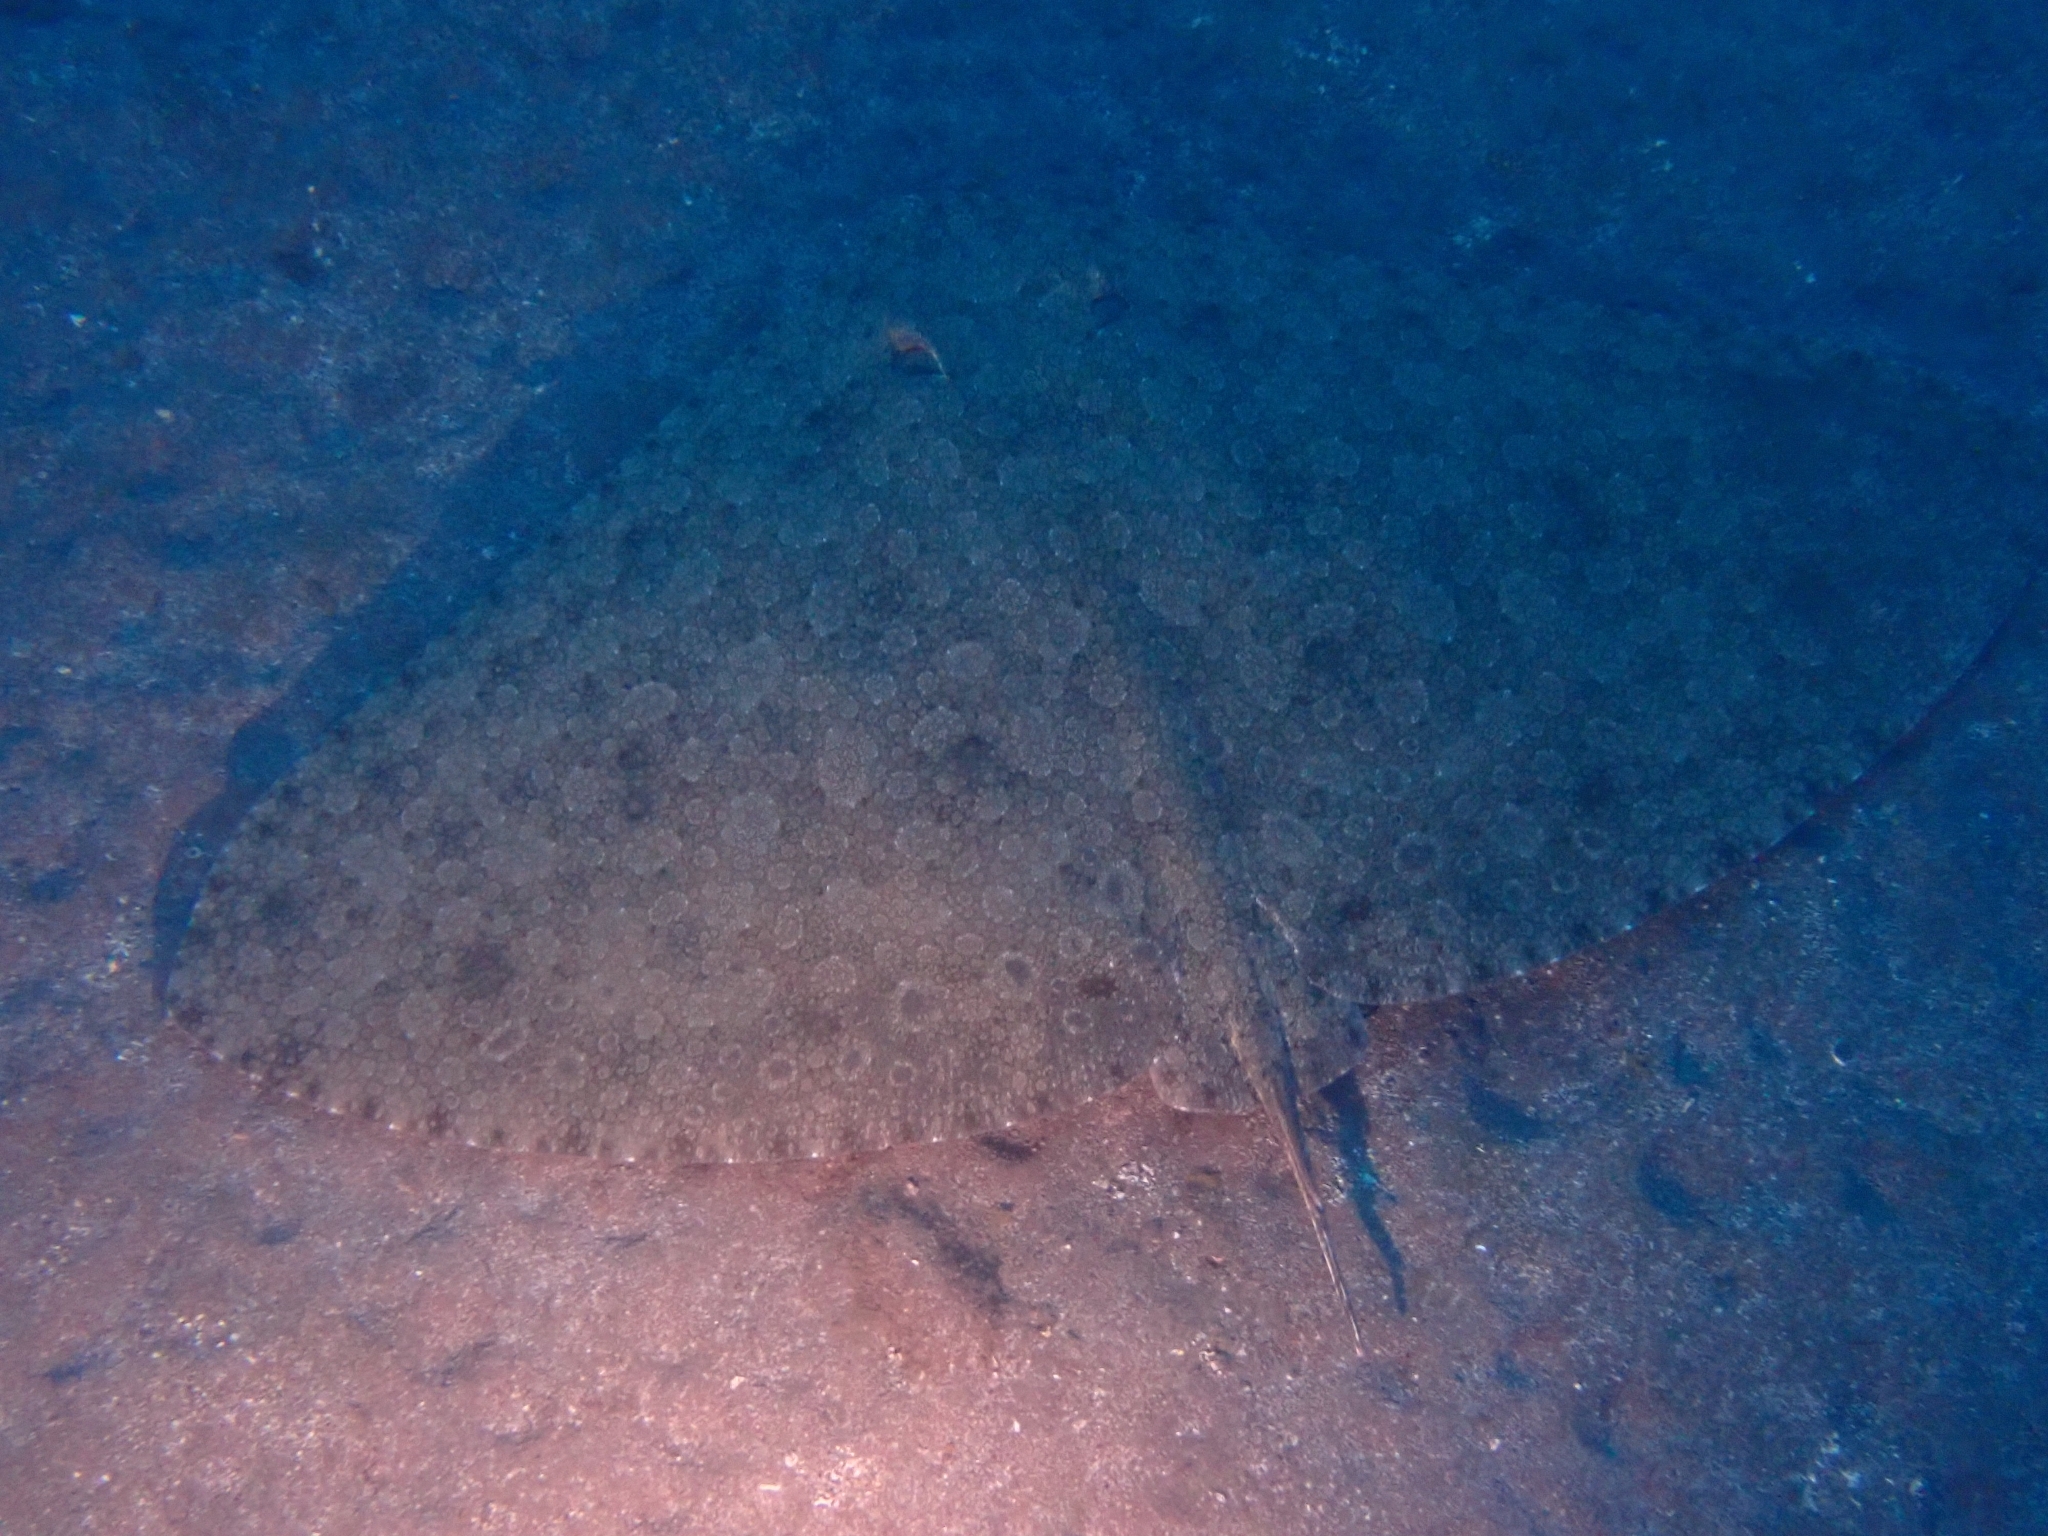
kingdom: Animalia
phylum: Chordata
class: Elasmobranchii
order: Myliobatiformes
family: Gymnuridae
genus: Gymnura
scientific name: Gymnura altavela
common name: Spiny butterfly ray
